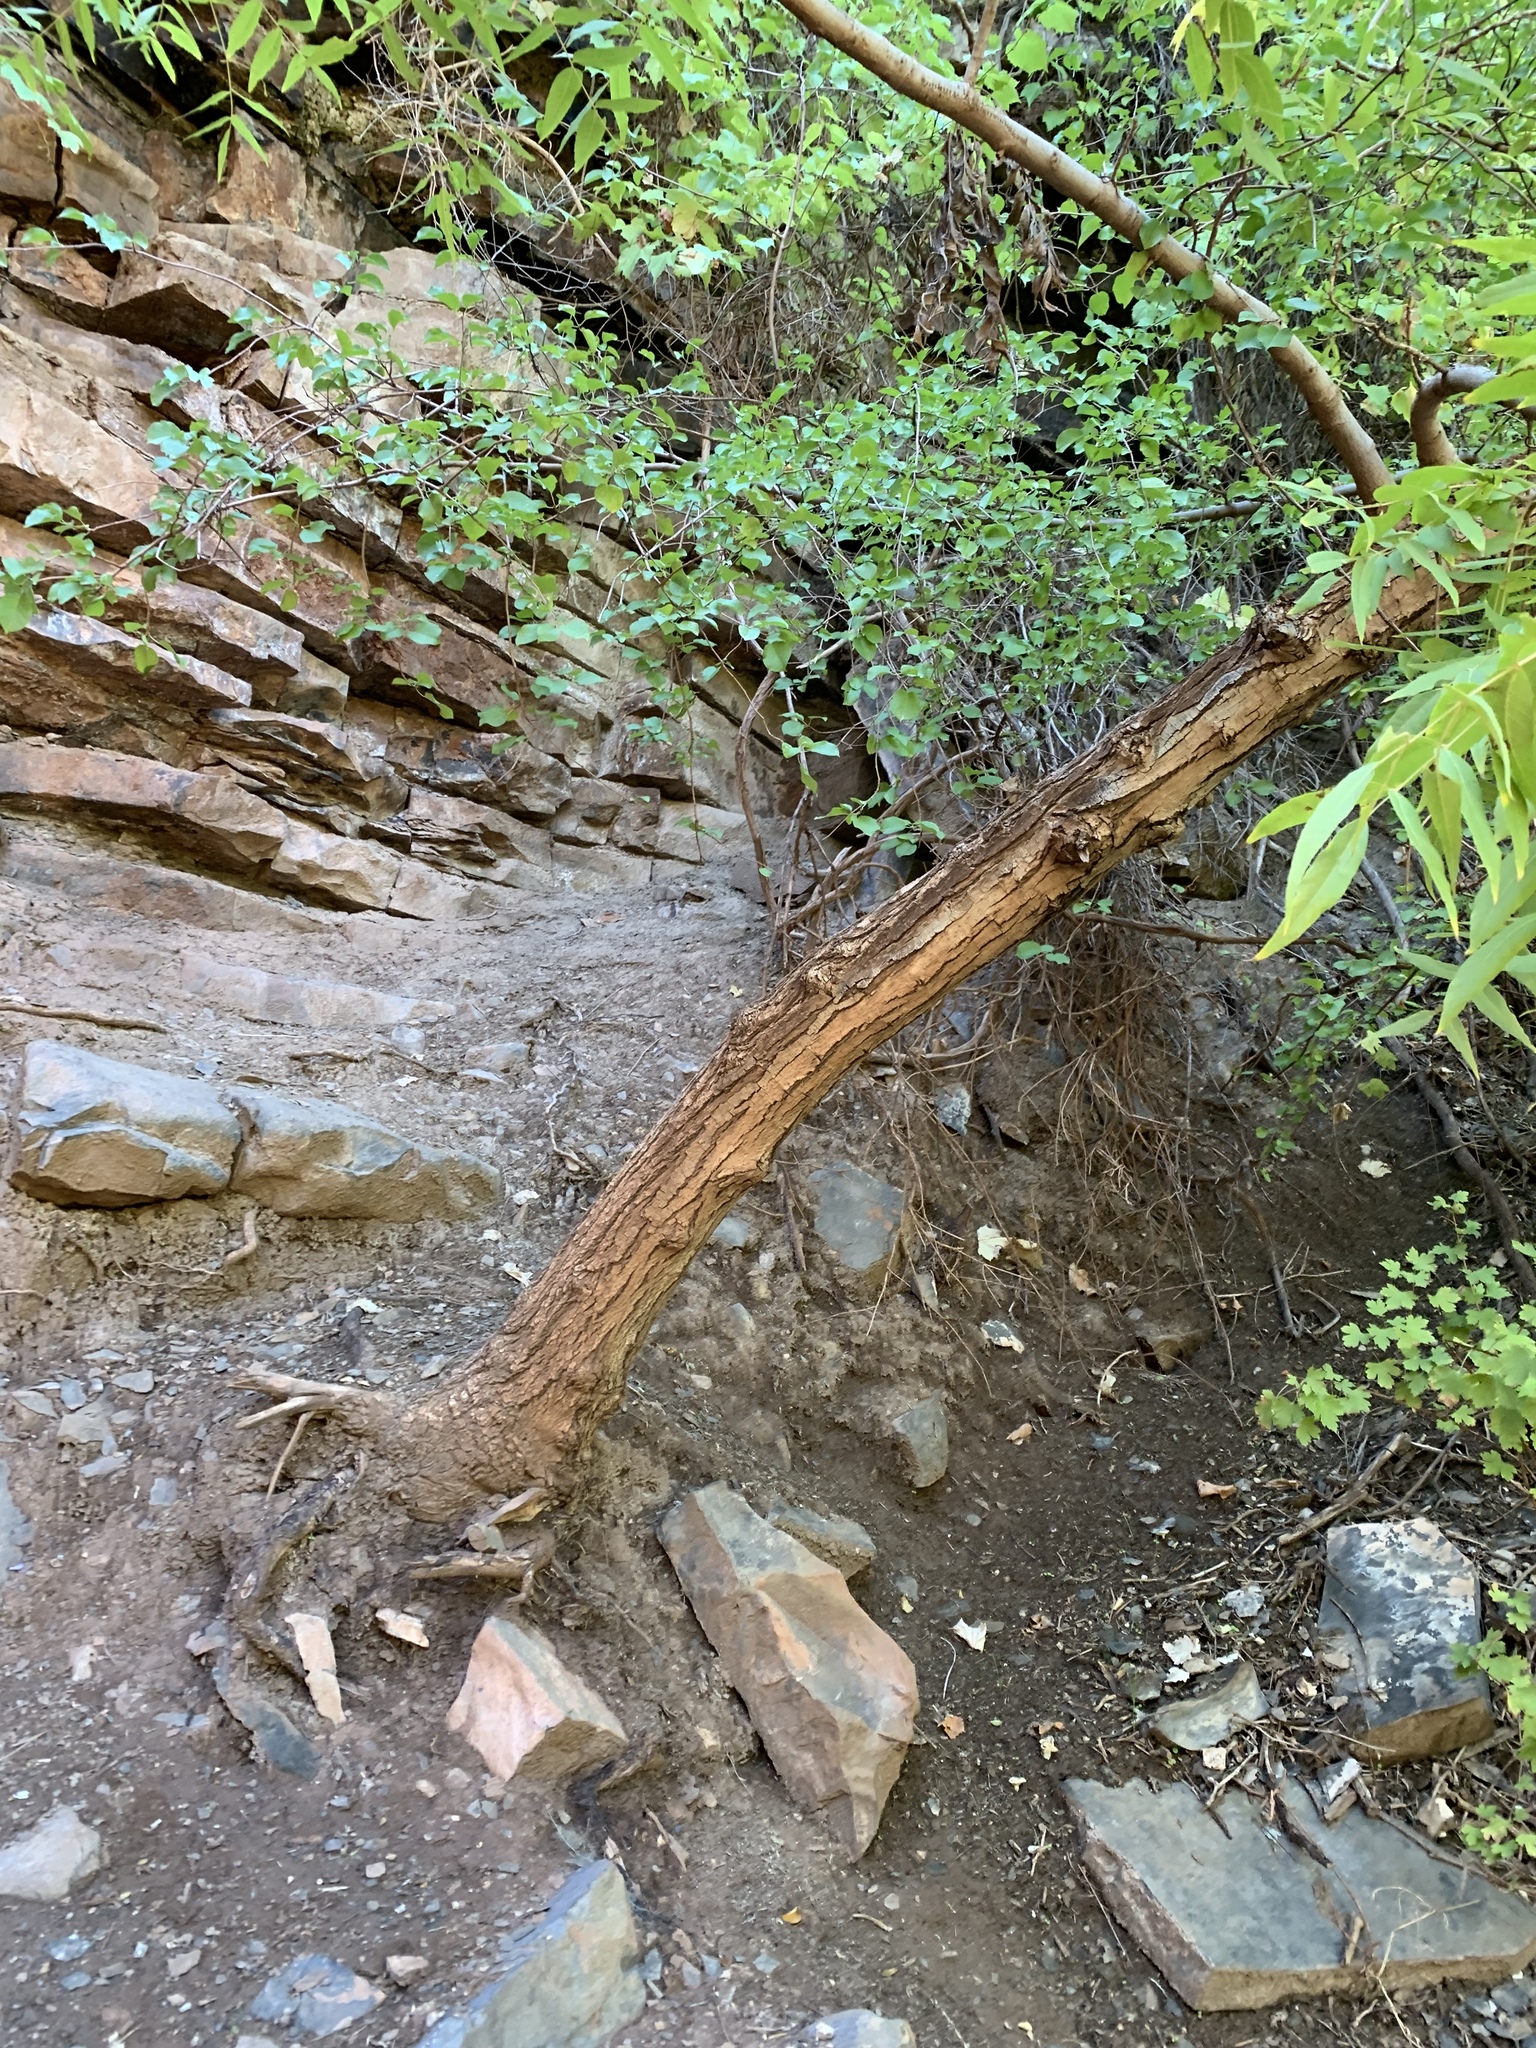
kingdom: Plantae
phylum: Tracheophyta
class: Magnoliopsida
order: Fagales
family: Juglandaceae
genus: Juglans
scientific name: Juglans major
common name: Arizona walnut
